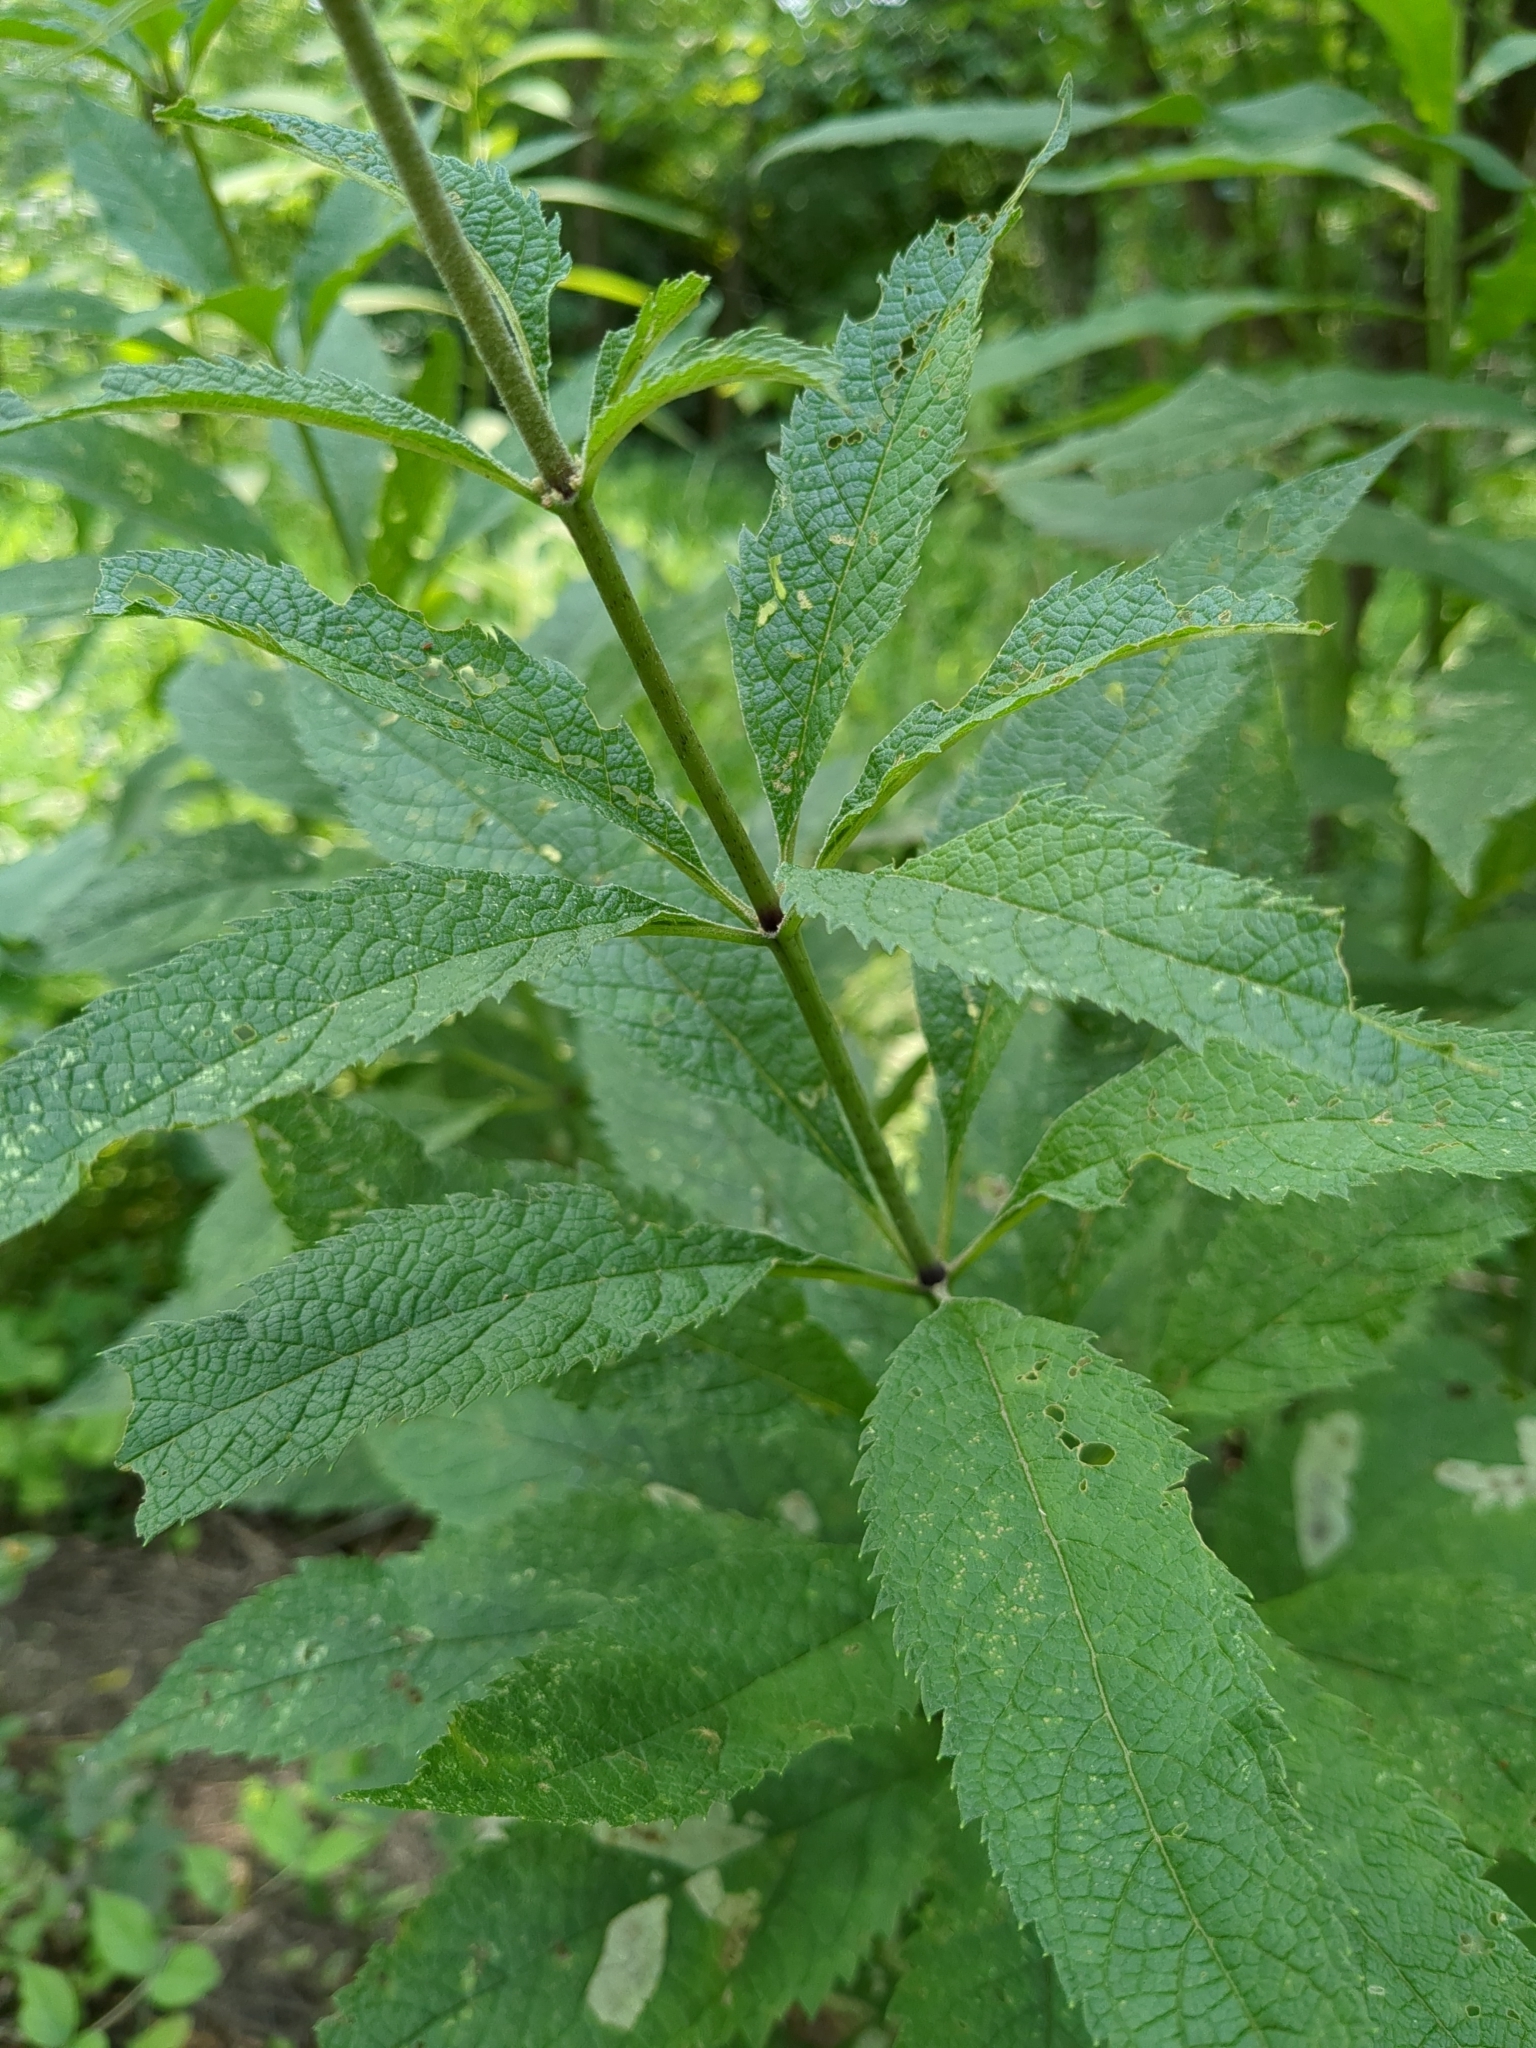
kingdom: Plantae
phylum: Tracheophyta
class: Magnoliopsida
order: Asterales
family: Asteraceae
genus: Eutrochium
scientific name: Eutrochium purpureum
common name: Gravelroot
